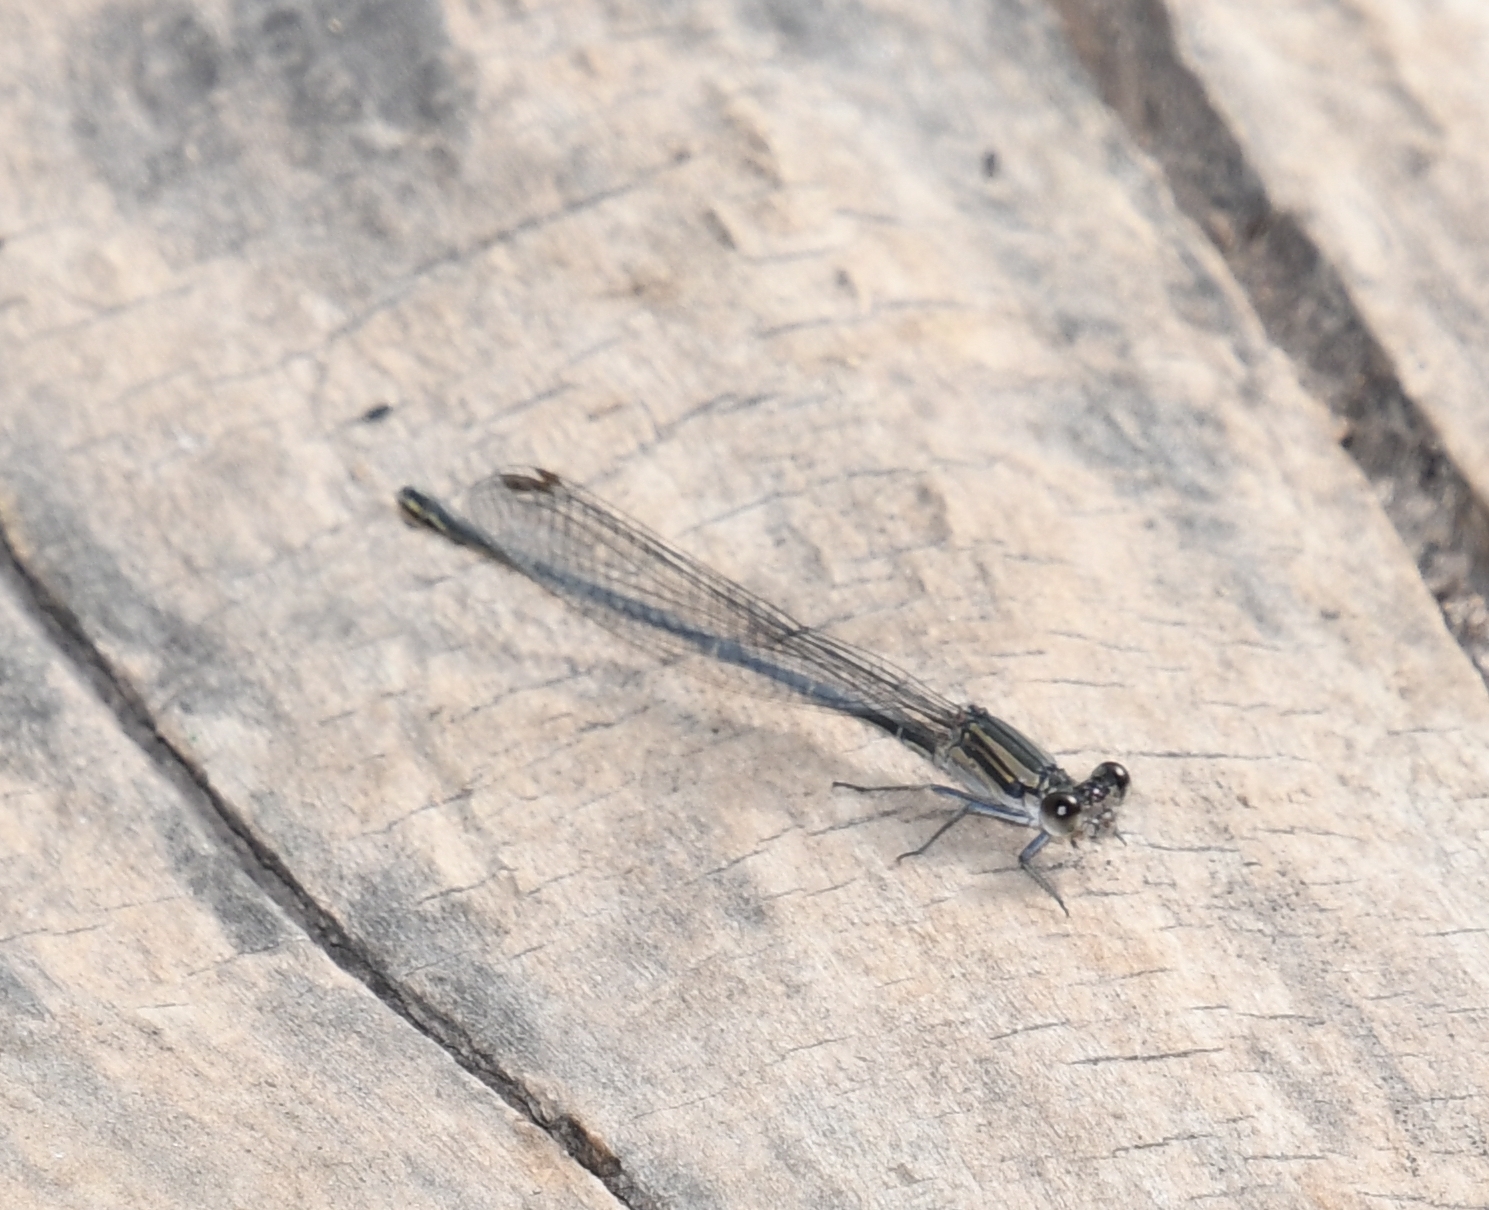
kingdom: Animalia
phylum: Arthropoda
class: Insecta
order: Odonata
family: Coenagrionidae
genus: Argia
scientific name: Argia translata
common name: Dusky dancer
